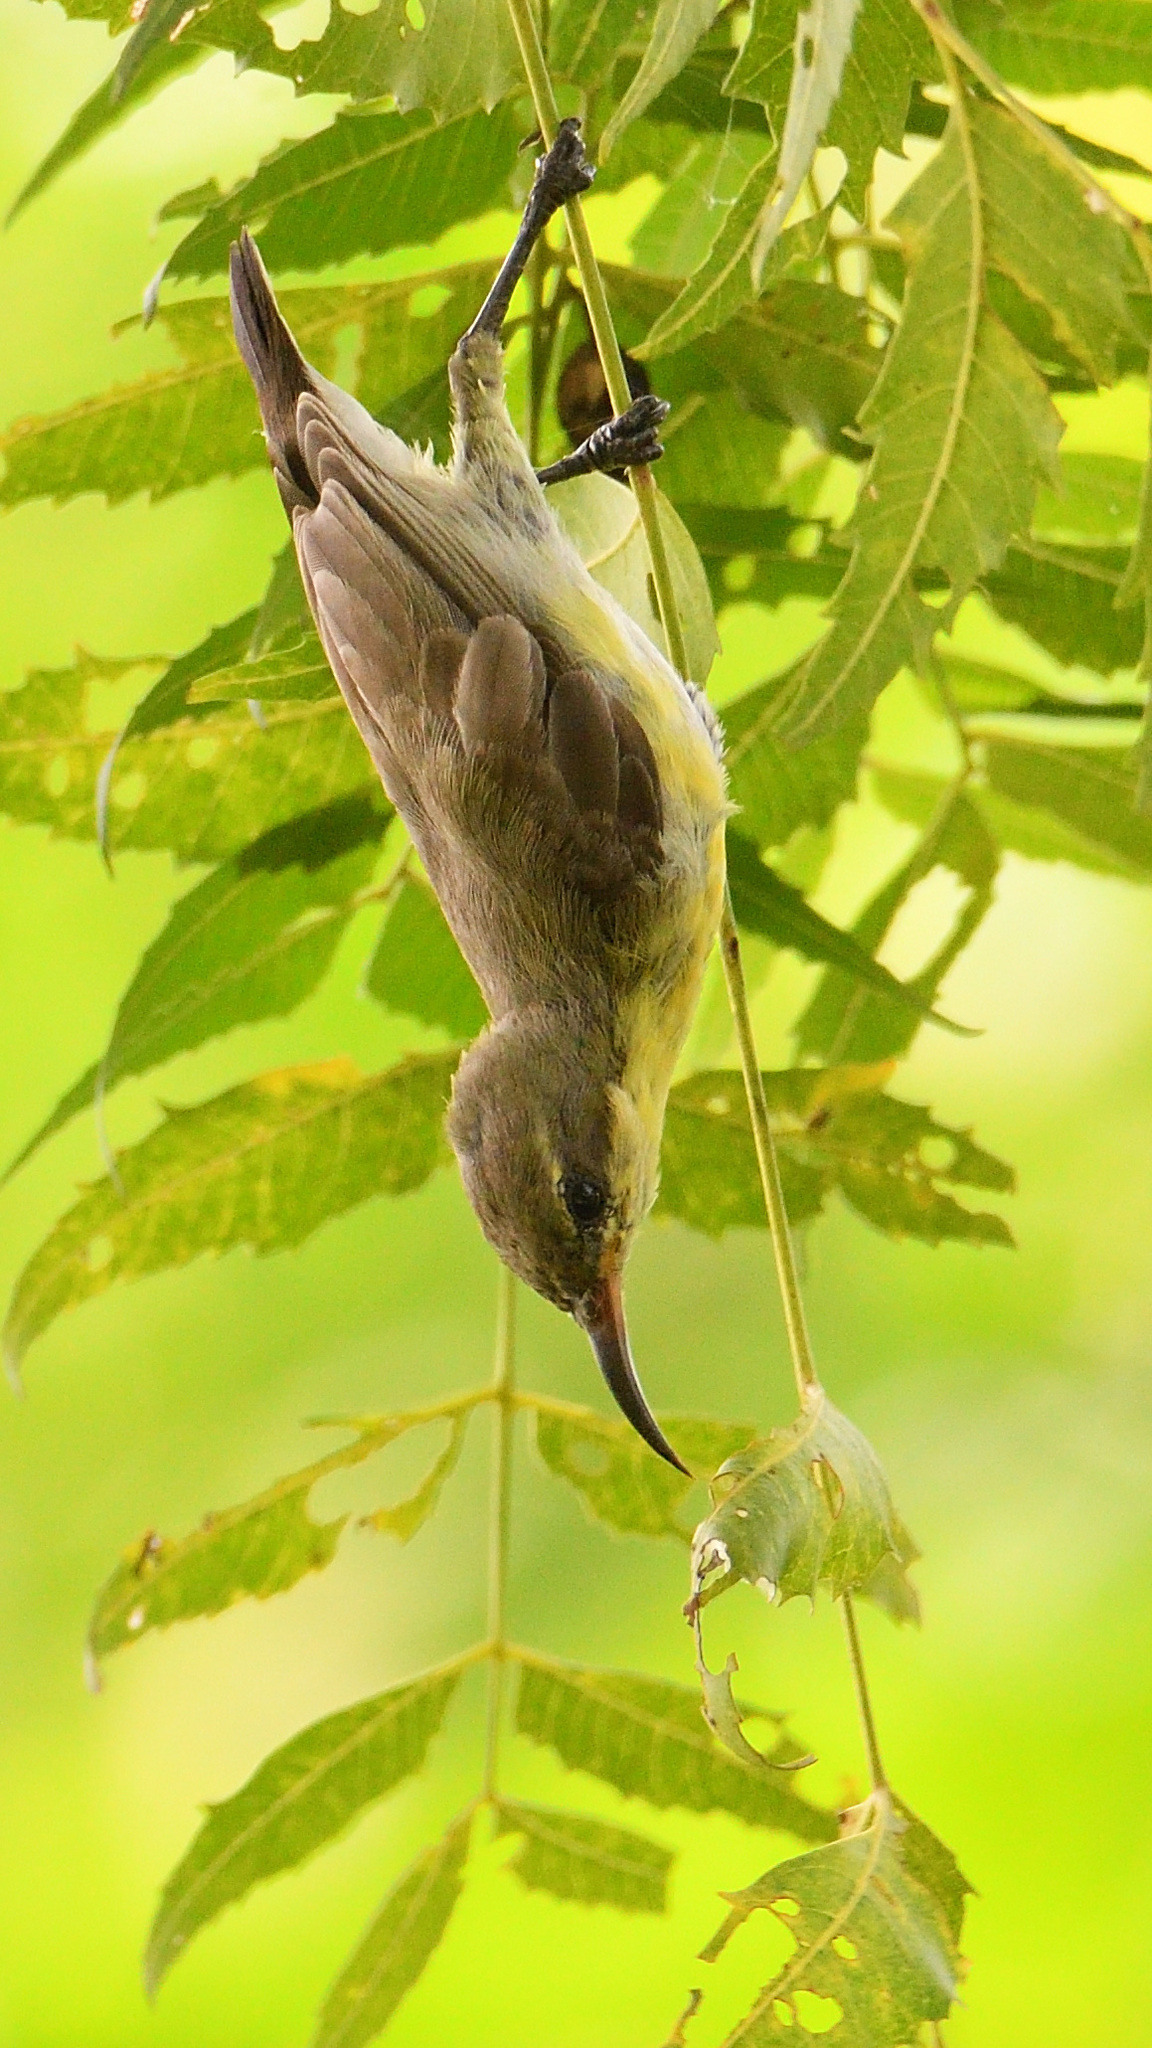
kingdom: Animalia
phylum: Chordata
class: Aves
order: Passeriformes
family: Nectariniidae
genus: Cinnyris
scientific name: Cinnyris asiaticus
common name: Purple sunbird
